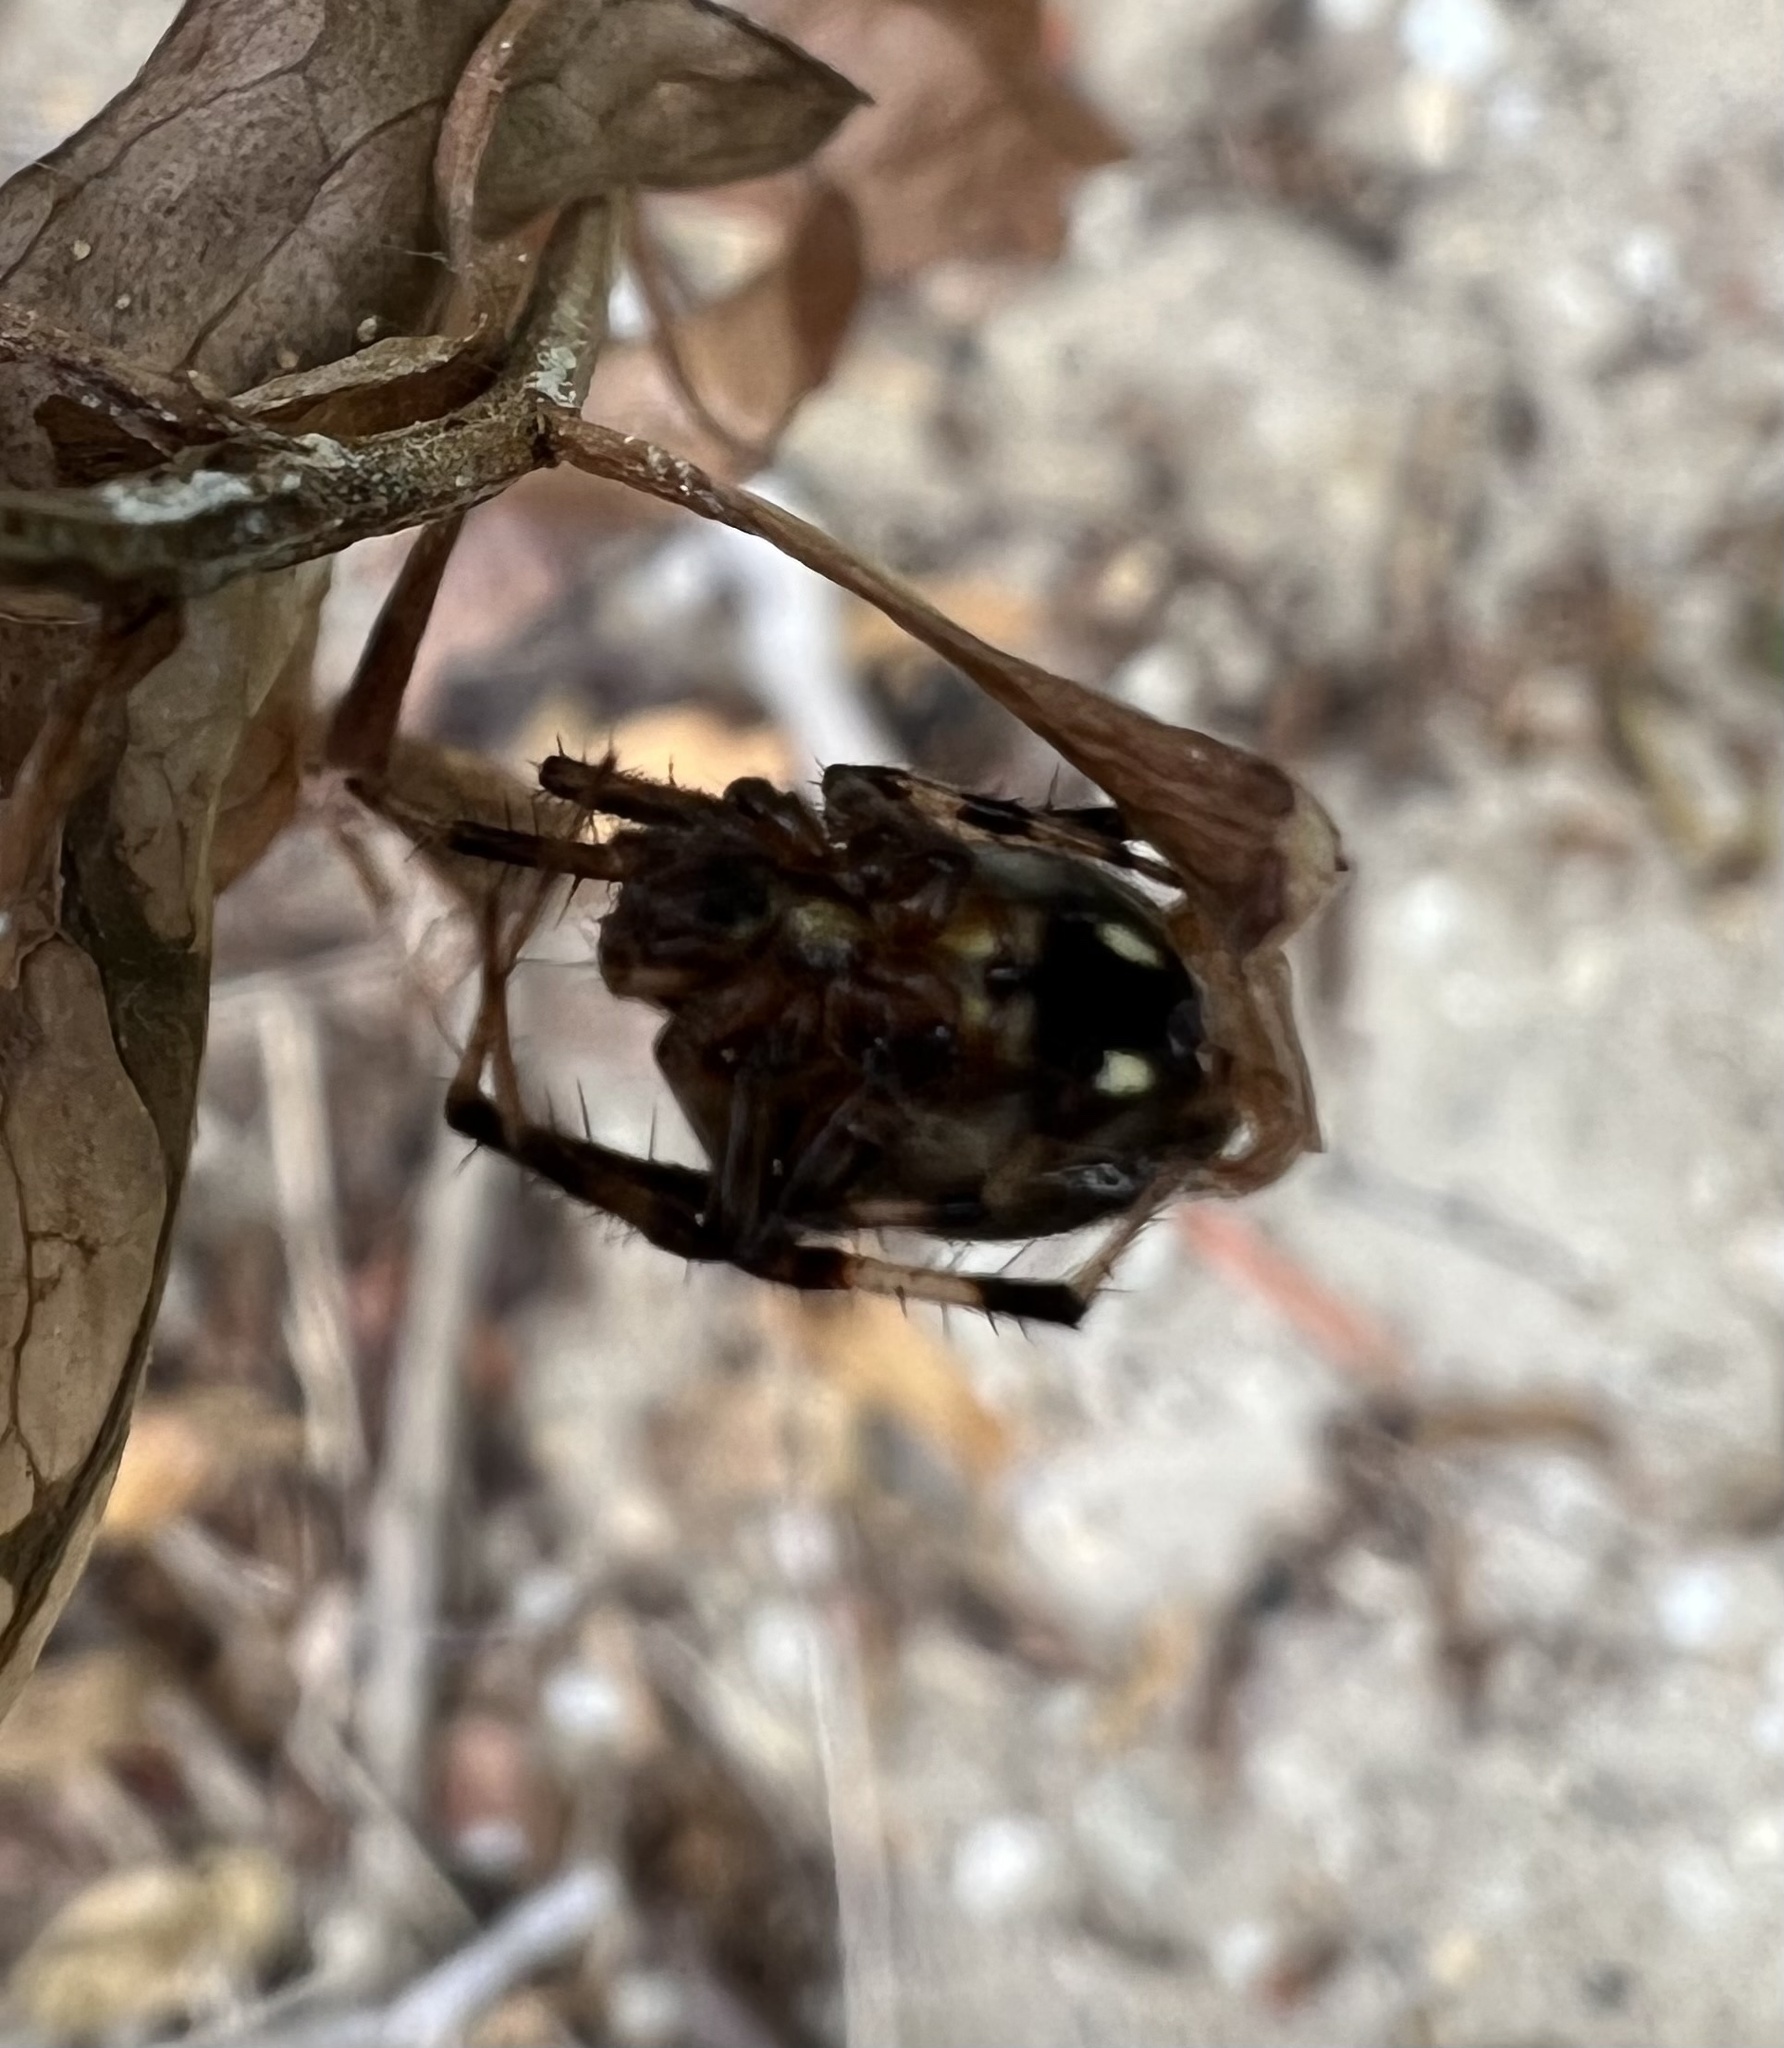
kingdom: Animalia
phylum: Arthropoda
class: Arachnida
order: Araneae
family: Araneidae
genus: Neoscona
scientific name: Neoscona arabesca
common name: Orb weavers
